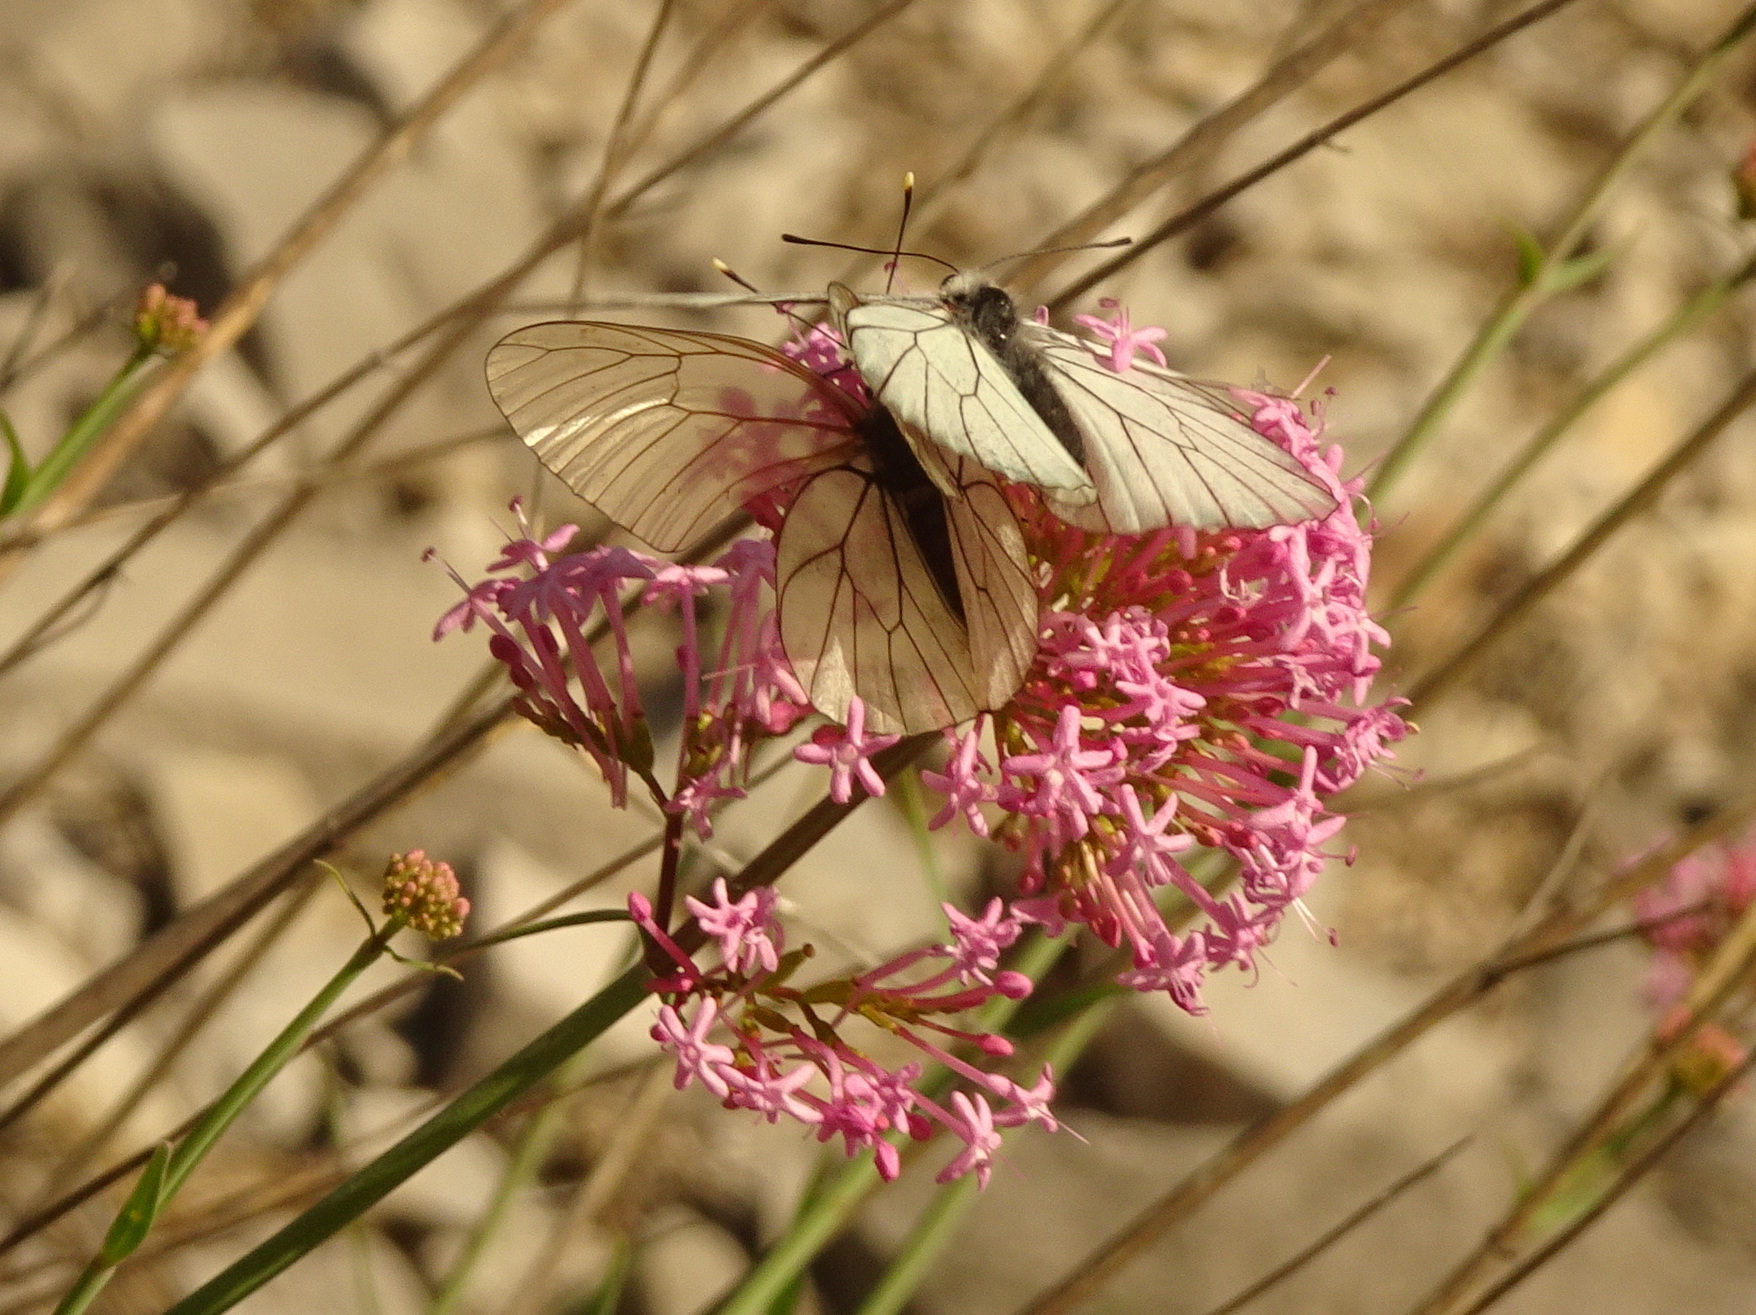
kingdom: Animalia
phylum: Arthropoda
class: Insecta
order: Lepidoptera
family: Pieridae
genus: Aporia
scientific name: Aporia crataegi
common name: Black-veined white
